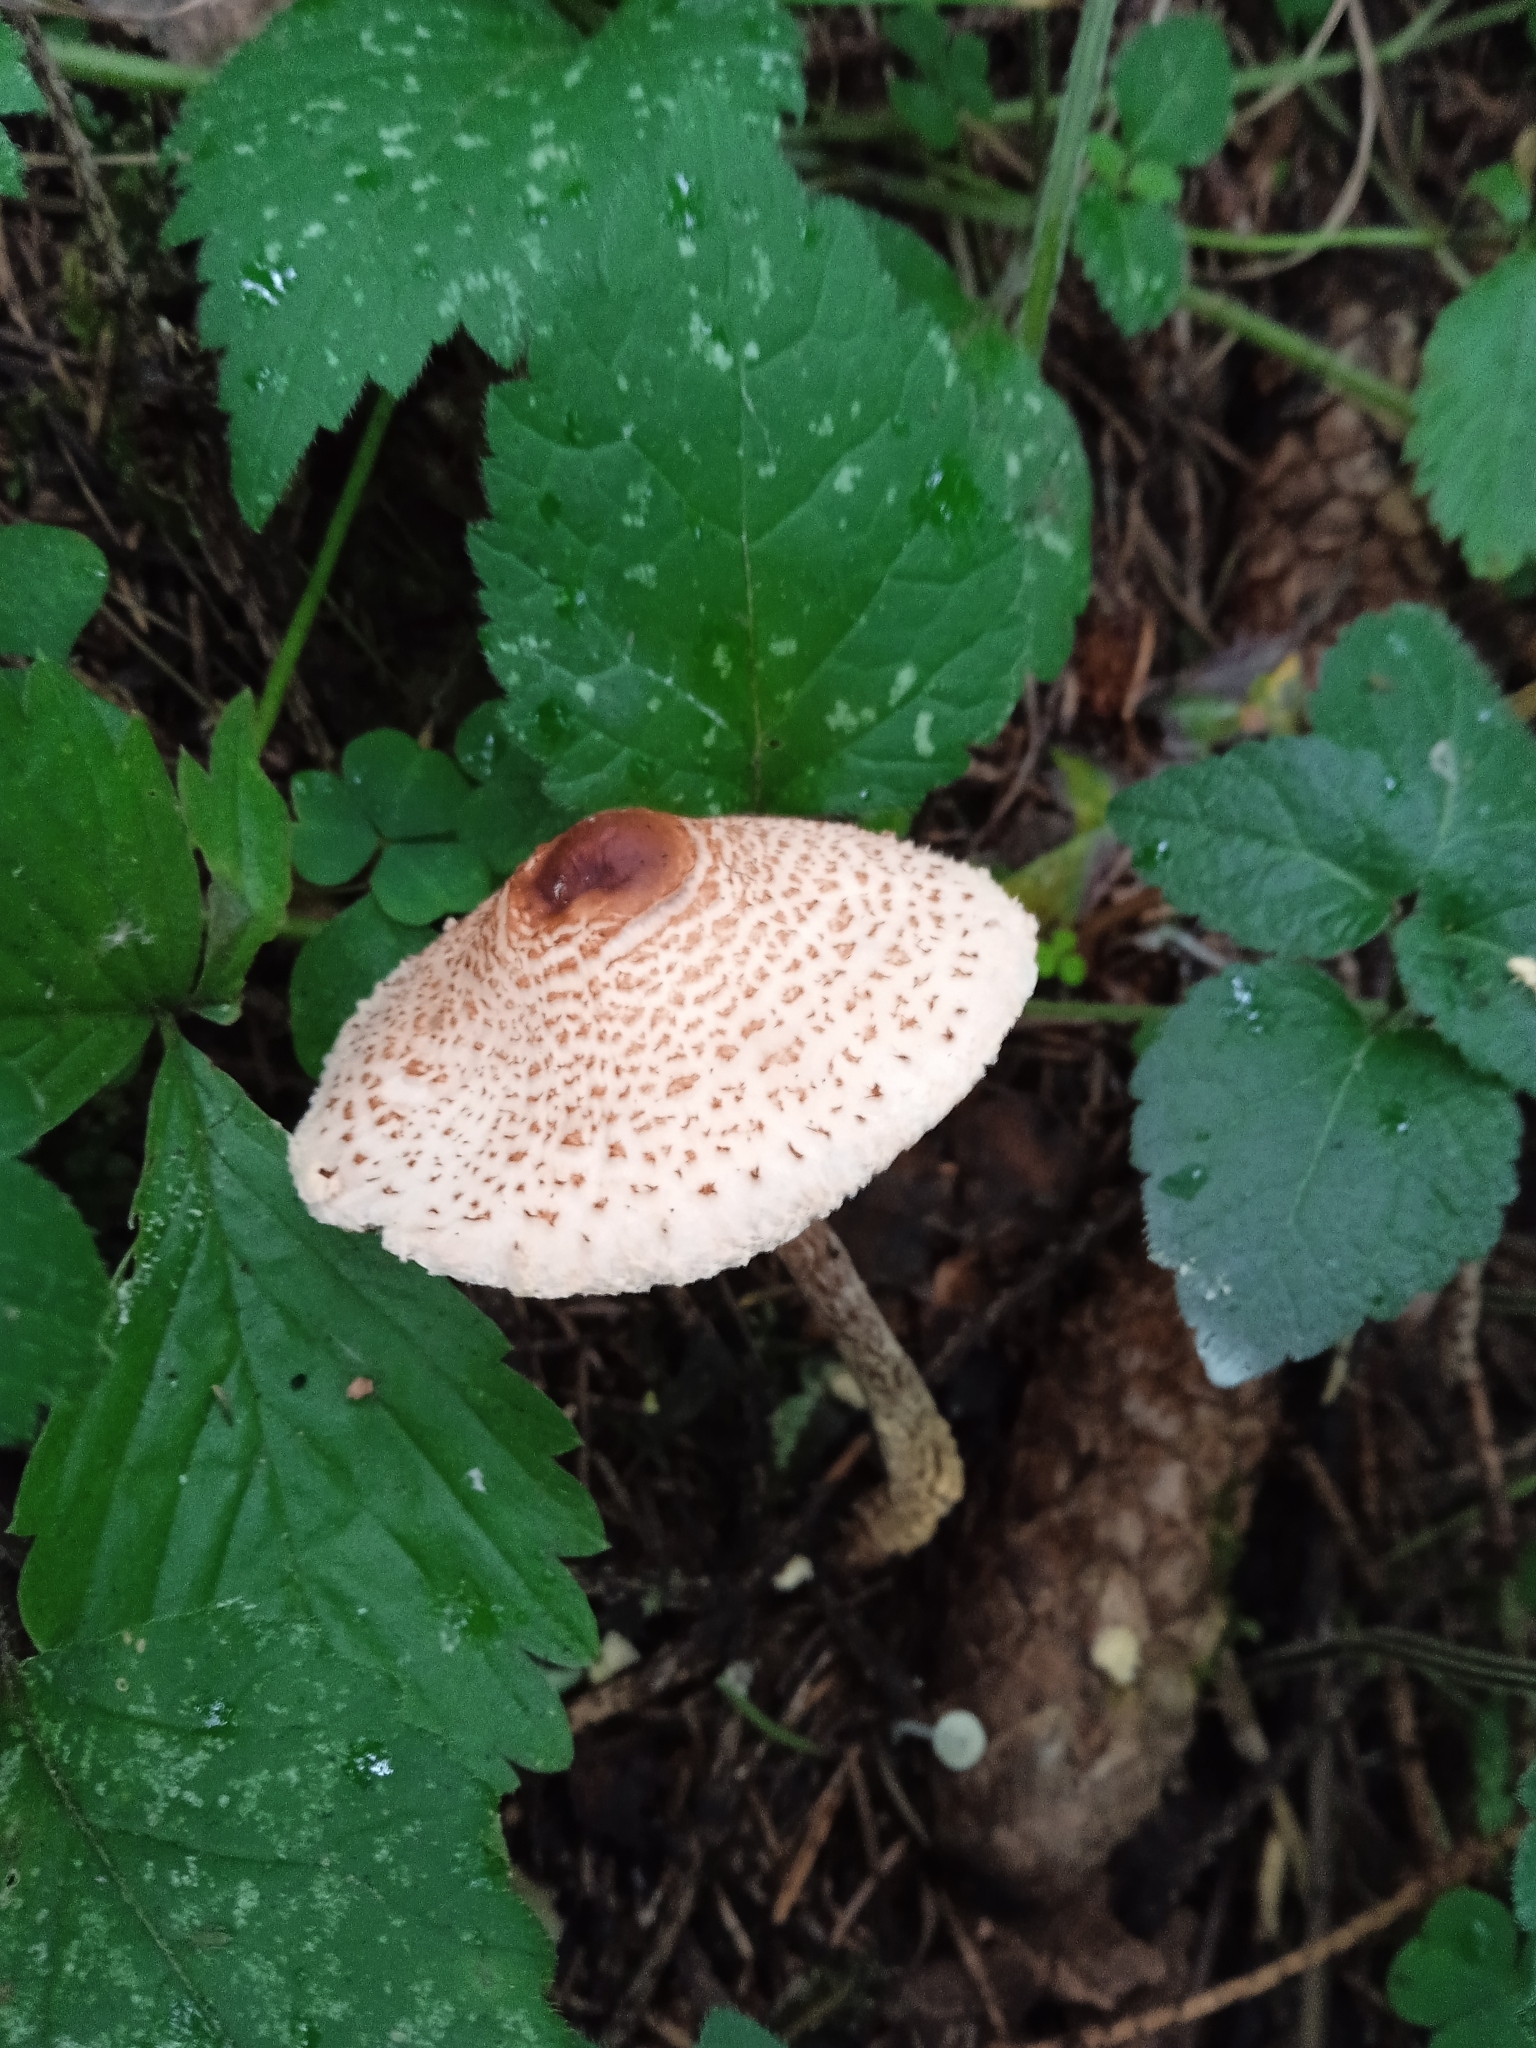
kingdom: Fungi
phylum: Basidiomycota
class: Agaricomycetes
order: Agaricales
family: Agaricaceae
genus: Lepiota
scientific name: Lepiota cristata
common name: Stinking dapperling
